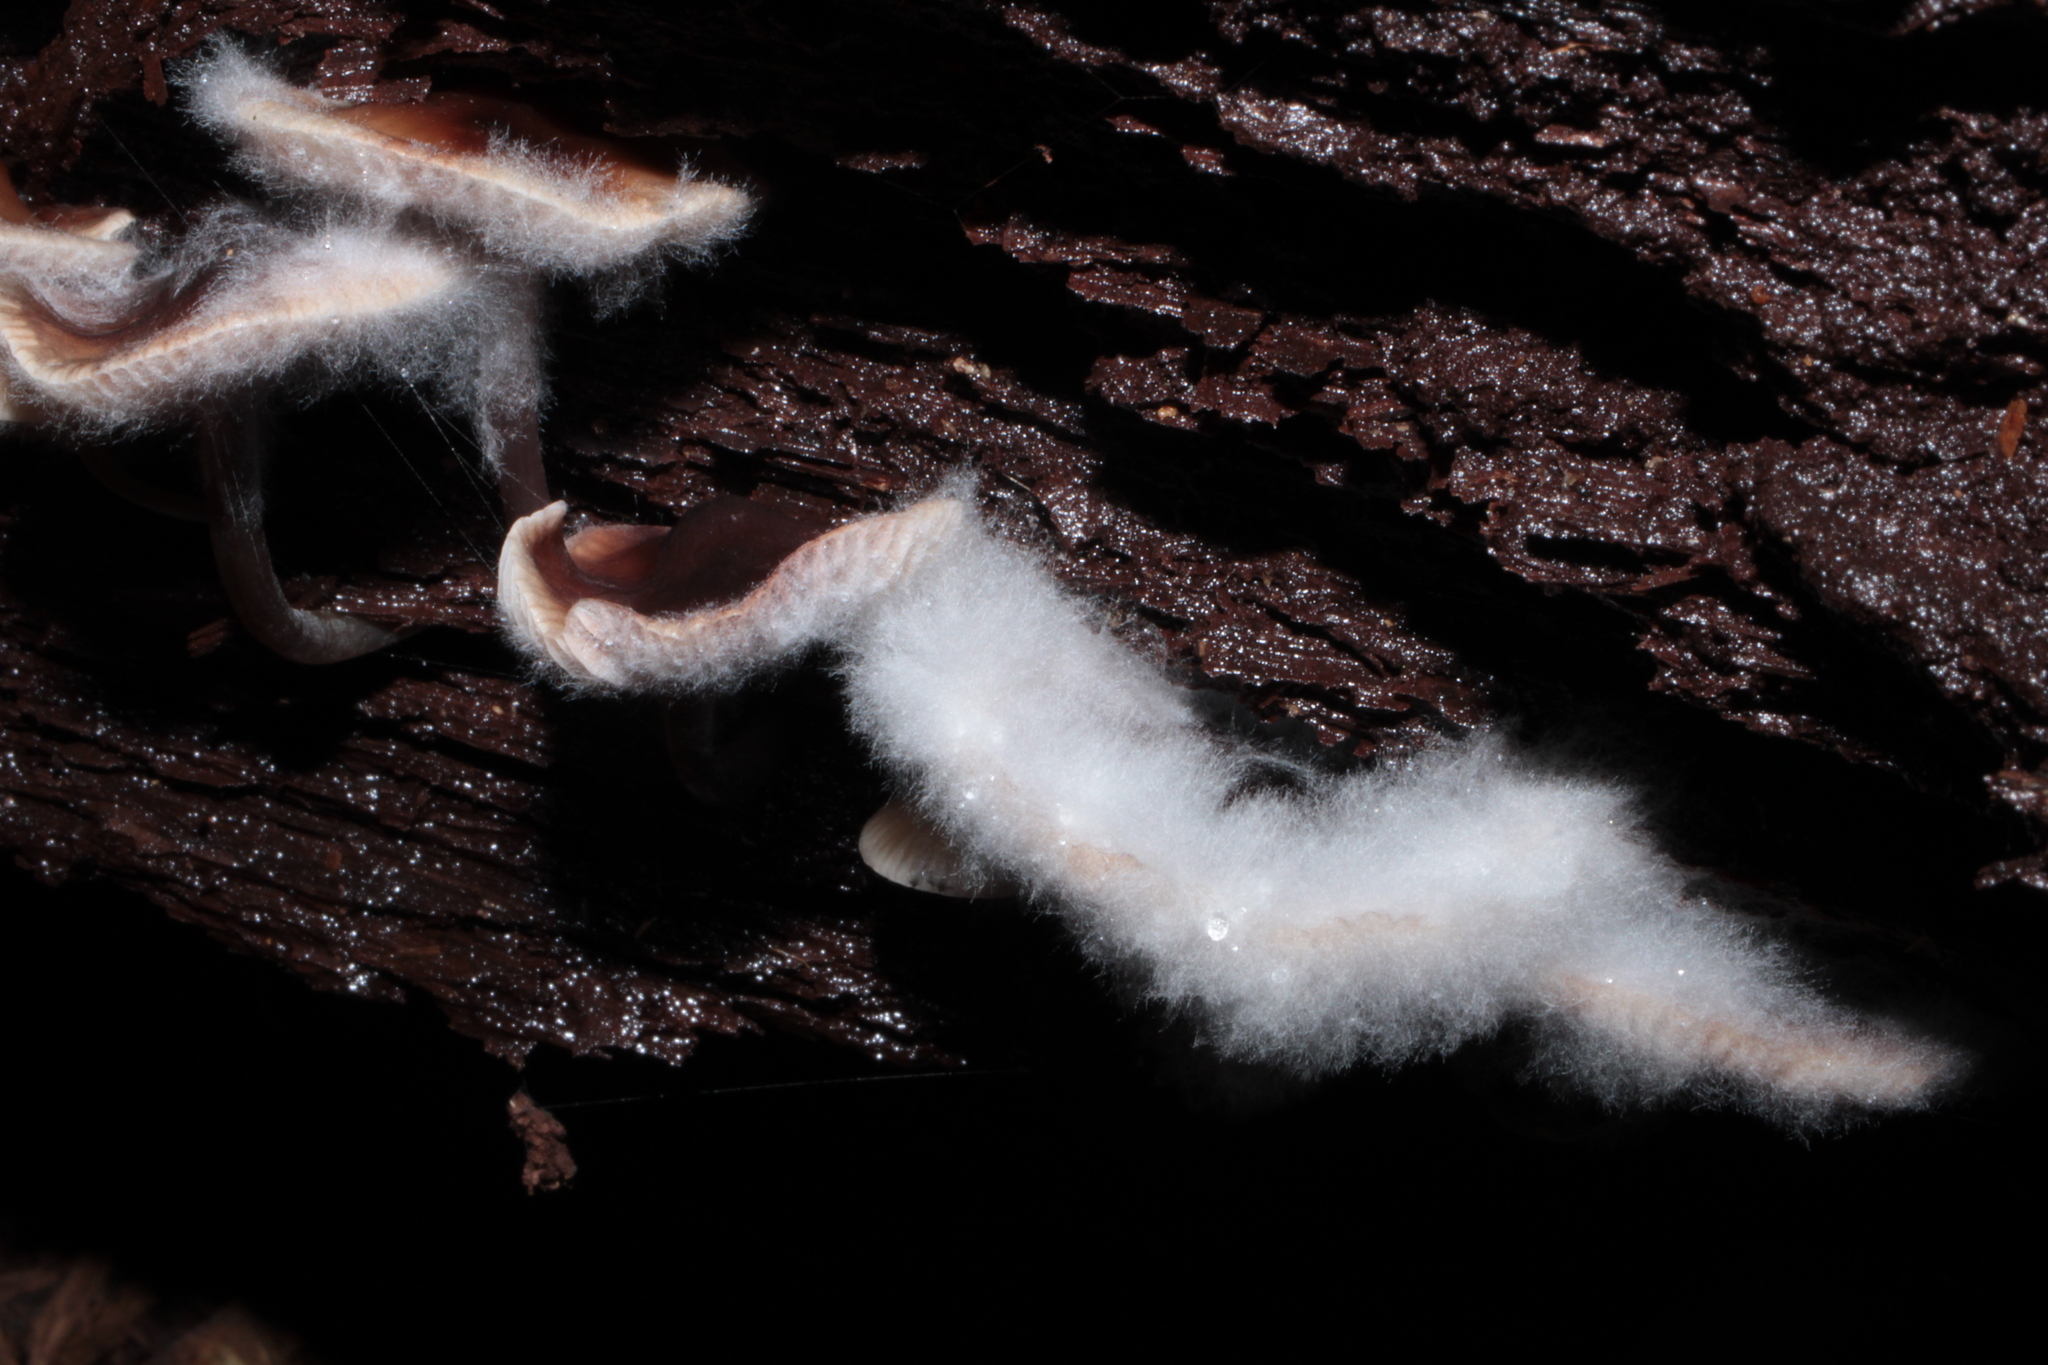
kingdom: Fungi
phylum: Mucoromycota
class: Mucoromycetes
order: Mucorales
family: Rhizopodaceae
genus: Syzygites
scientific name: Syzygites megalocarpus
